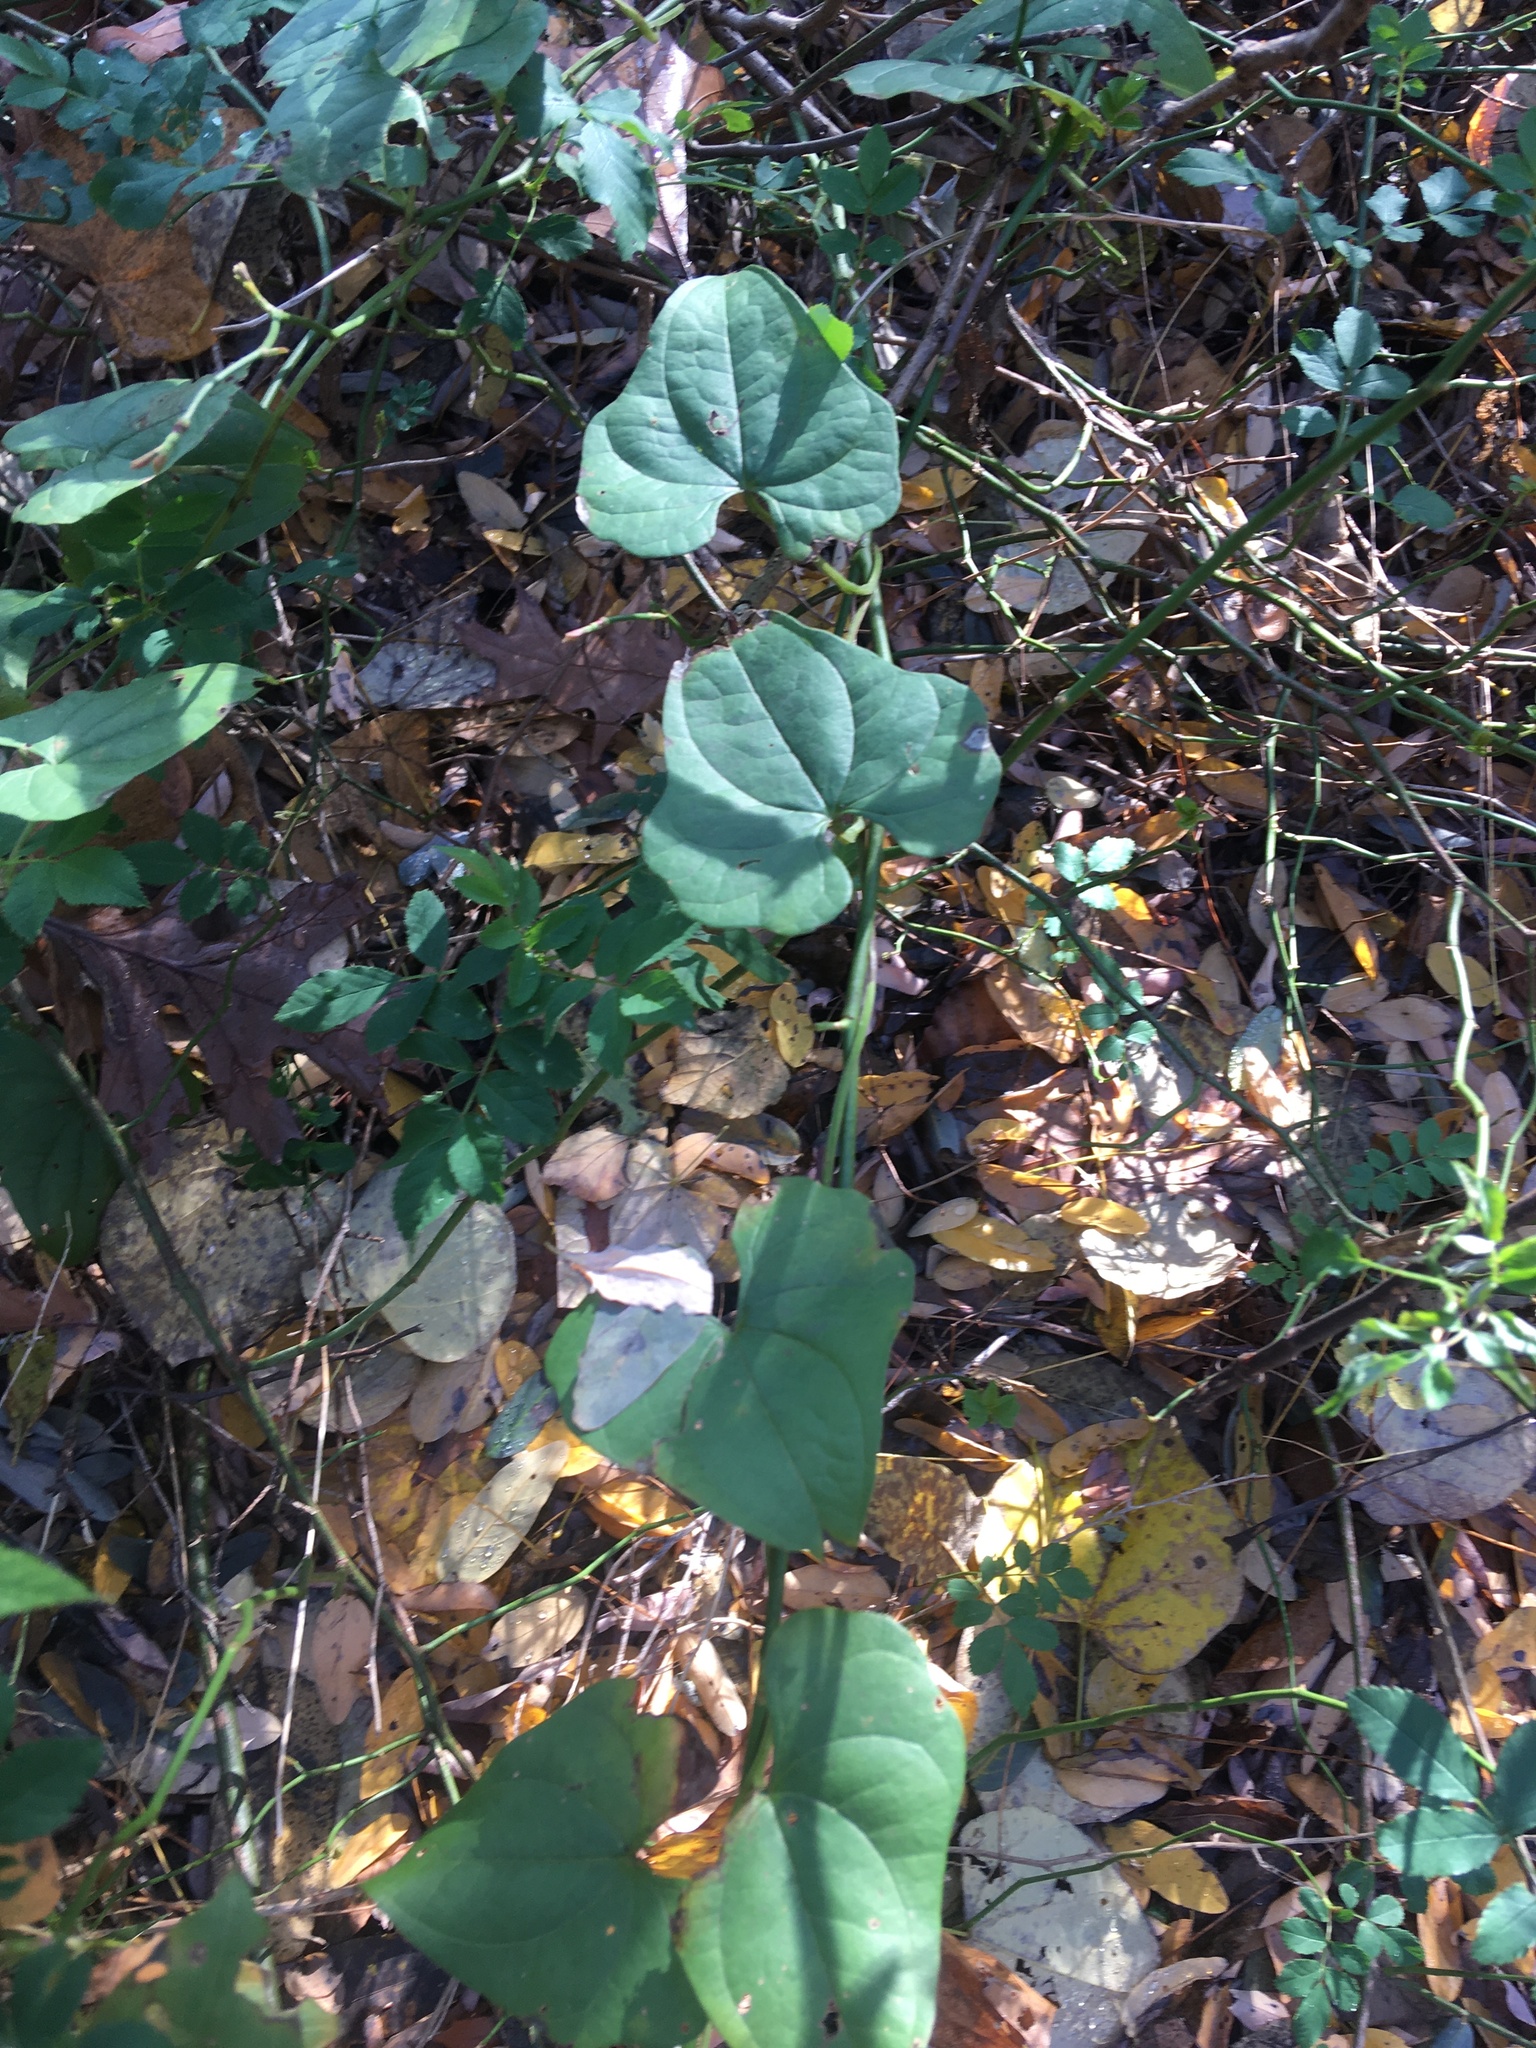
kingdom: Plantae
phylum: Tracheophyta
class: Liliopsida
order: Dioscoreales
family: Dioscoreaceae
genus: Dioscorea
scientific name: Dioscorea polystachya
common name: Chinese yam
